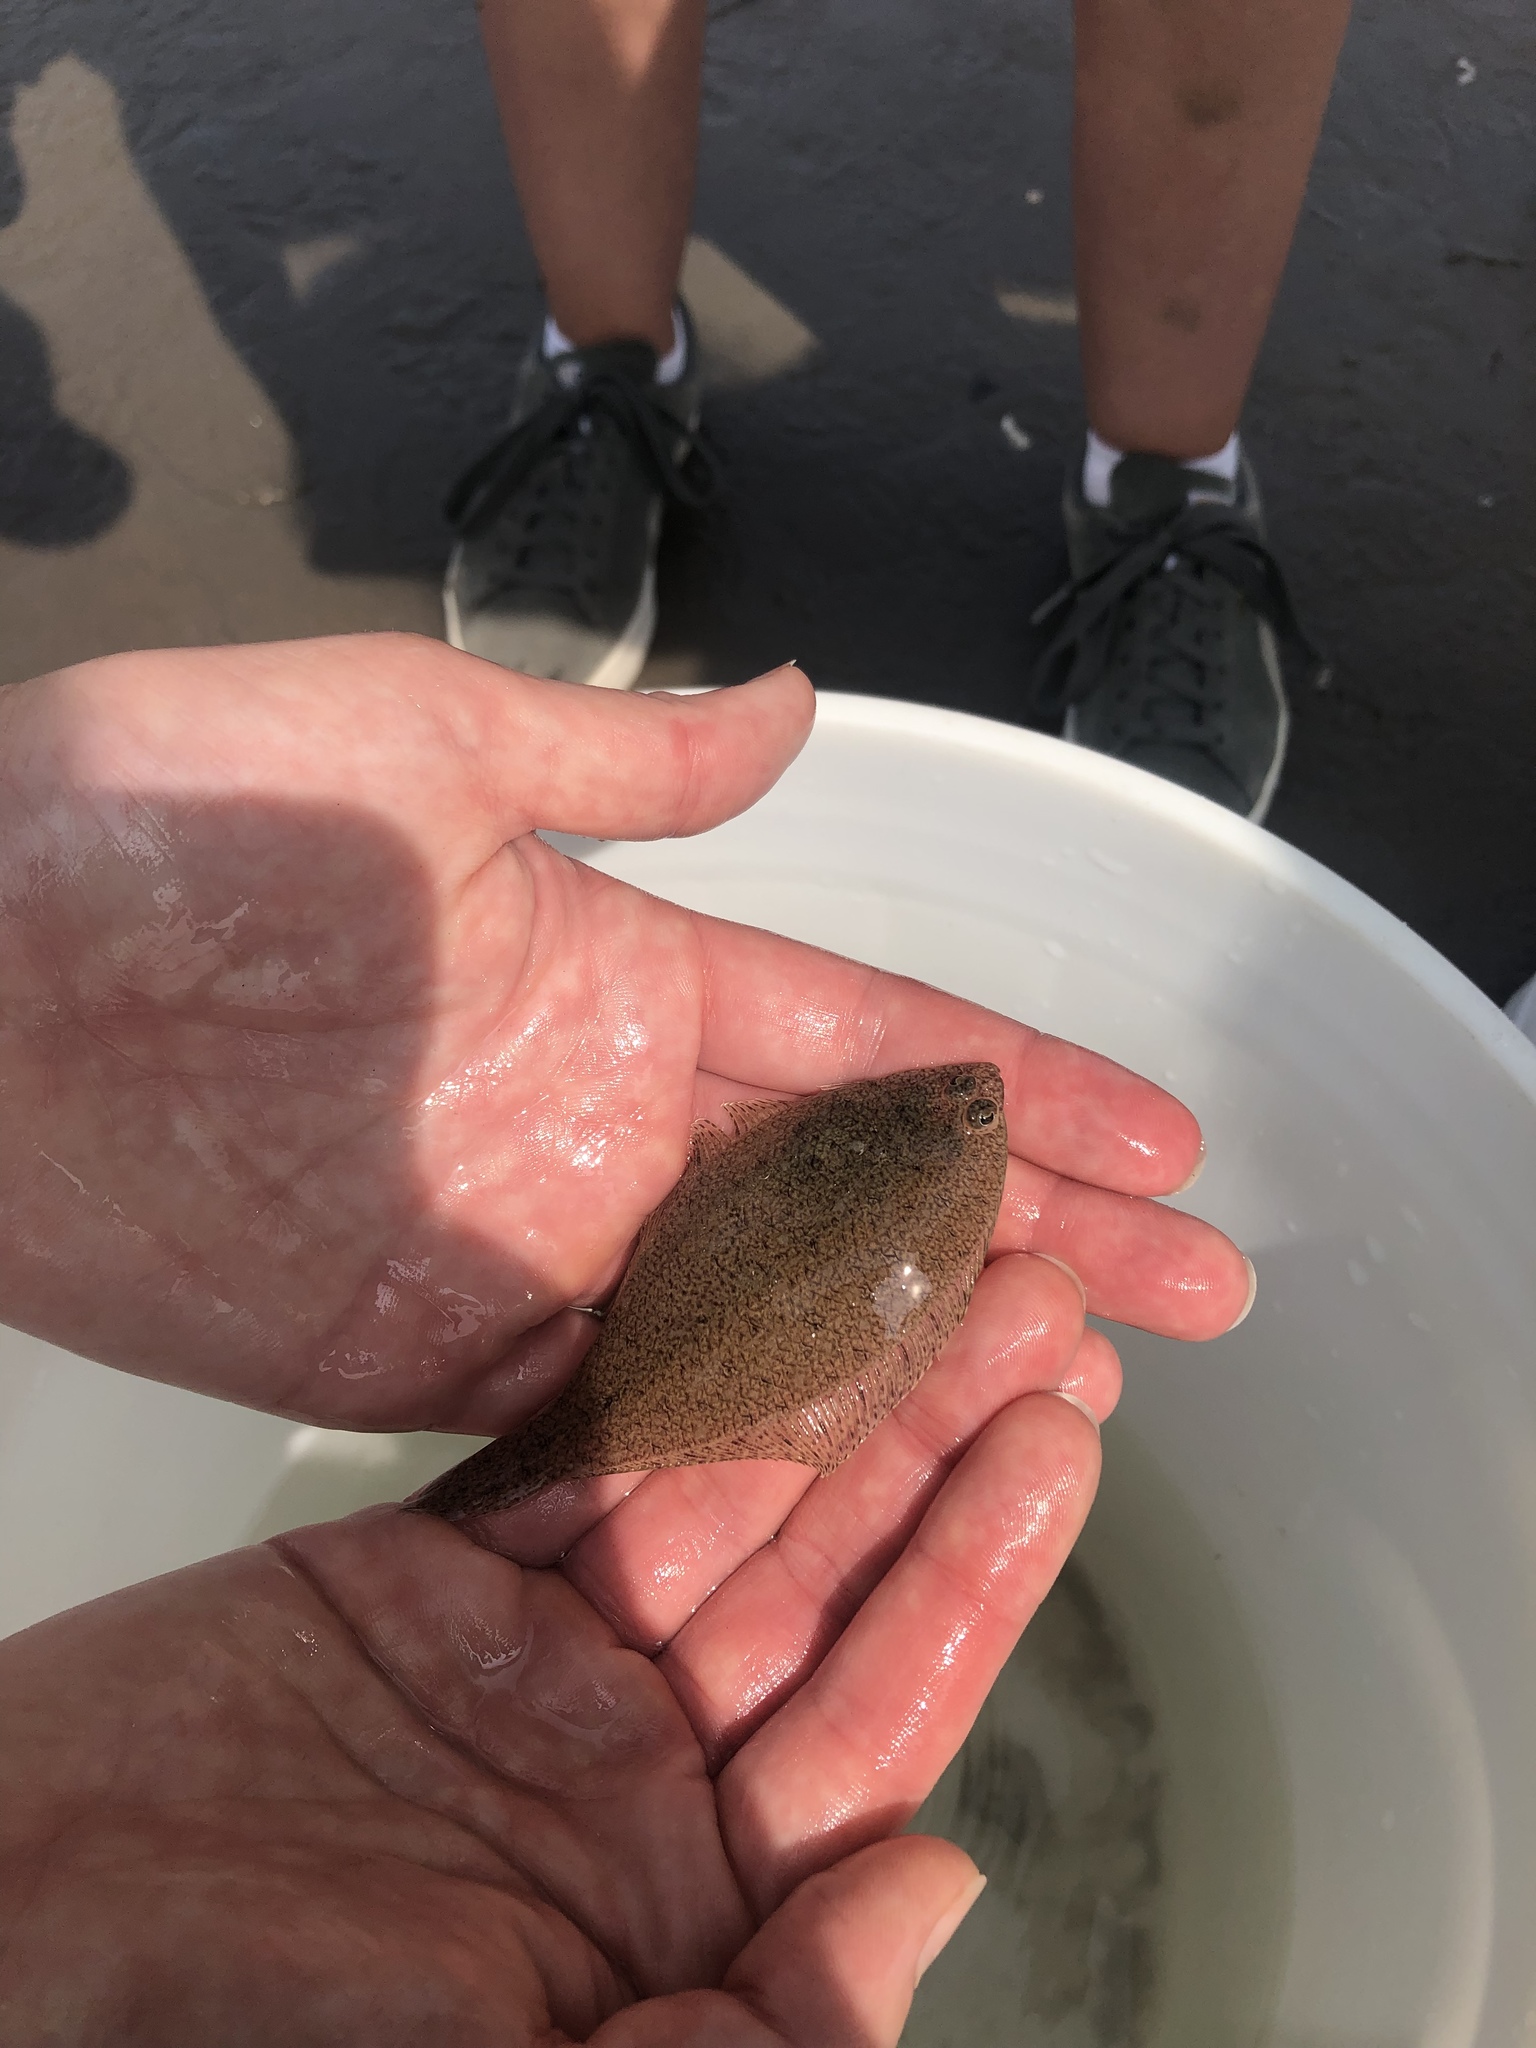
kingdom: Animalia
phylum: Chordata
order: Pleuronectiformes
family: Paralichthyidae
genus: Paralichthys
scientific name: Paralichthys dentatus
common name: Summer flounder
